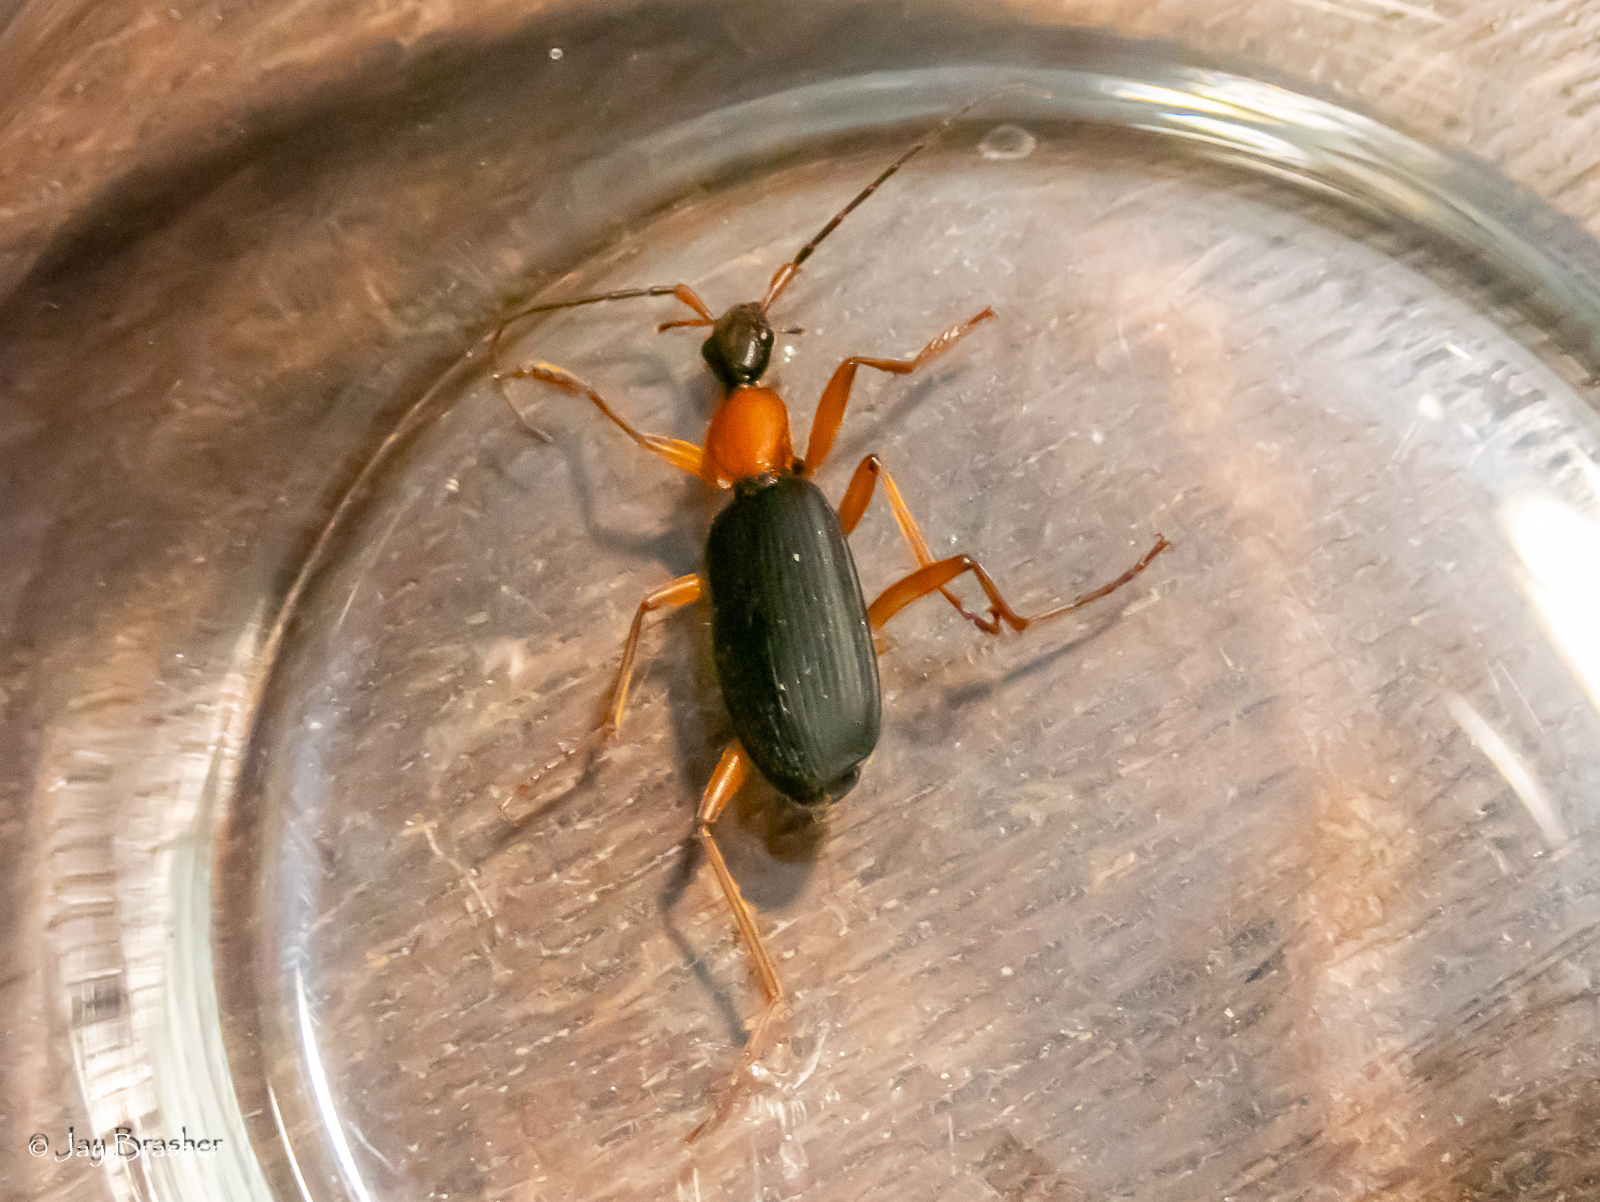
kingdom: Animalia
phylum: Arthropoda
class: Insecta
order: Coleoptera
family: Carabidae
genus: Galerita
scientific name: Galerita bicolor
